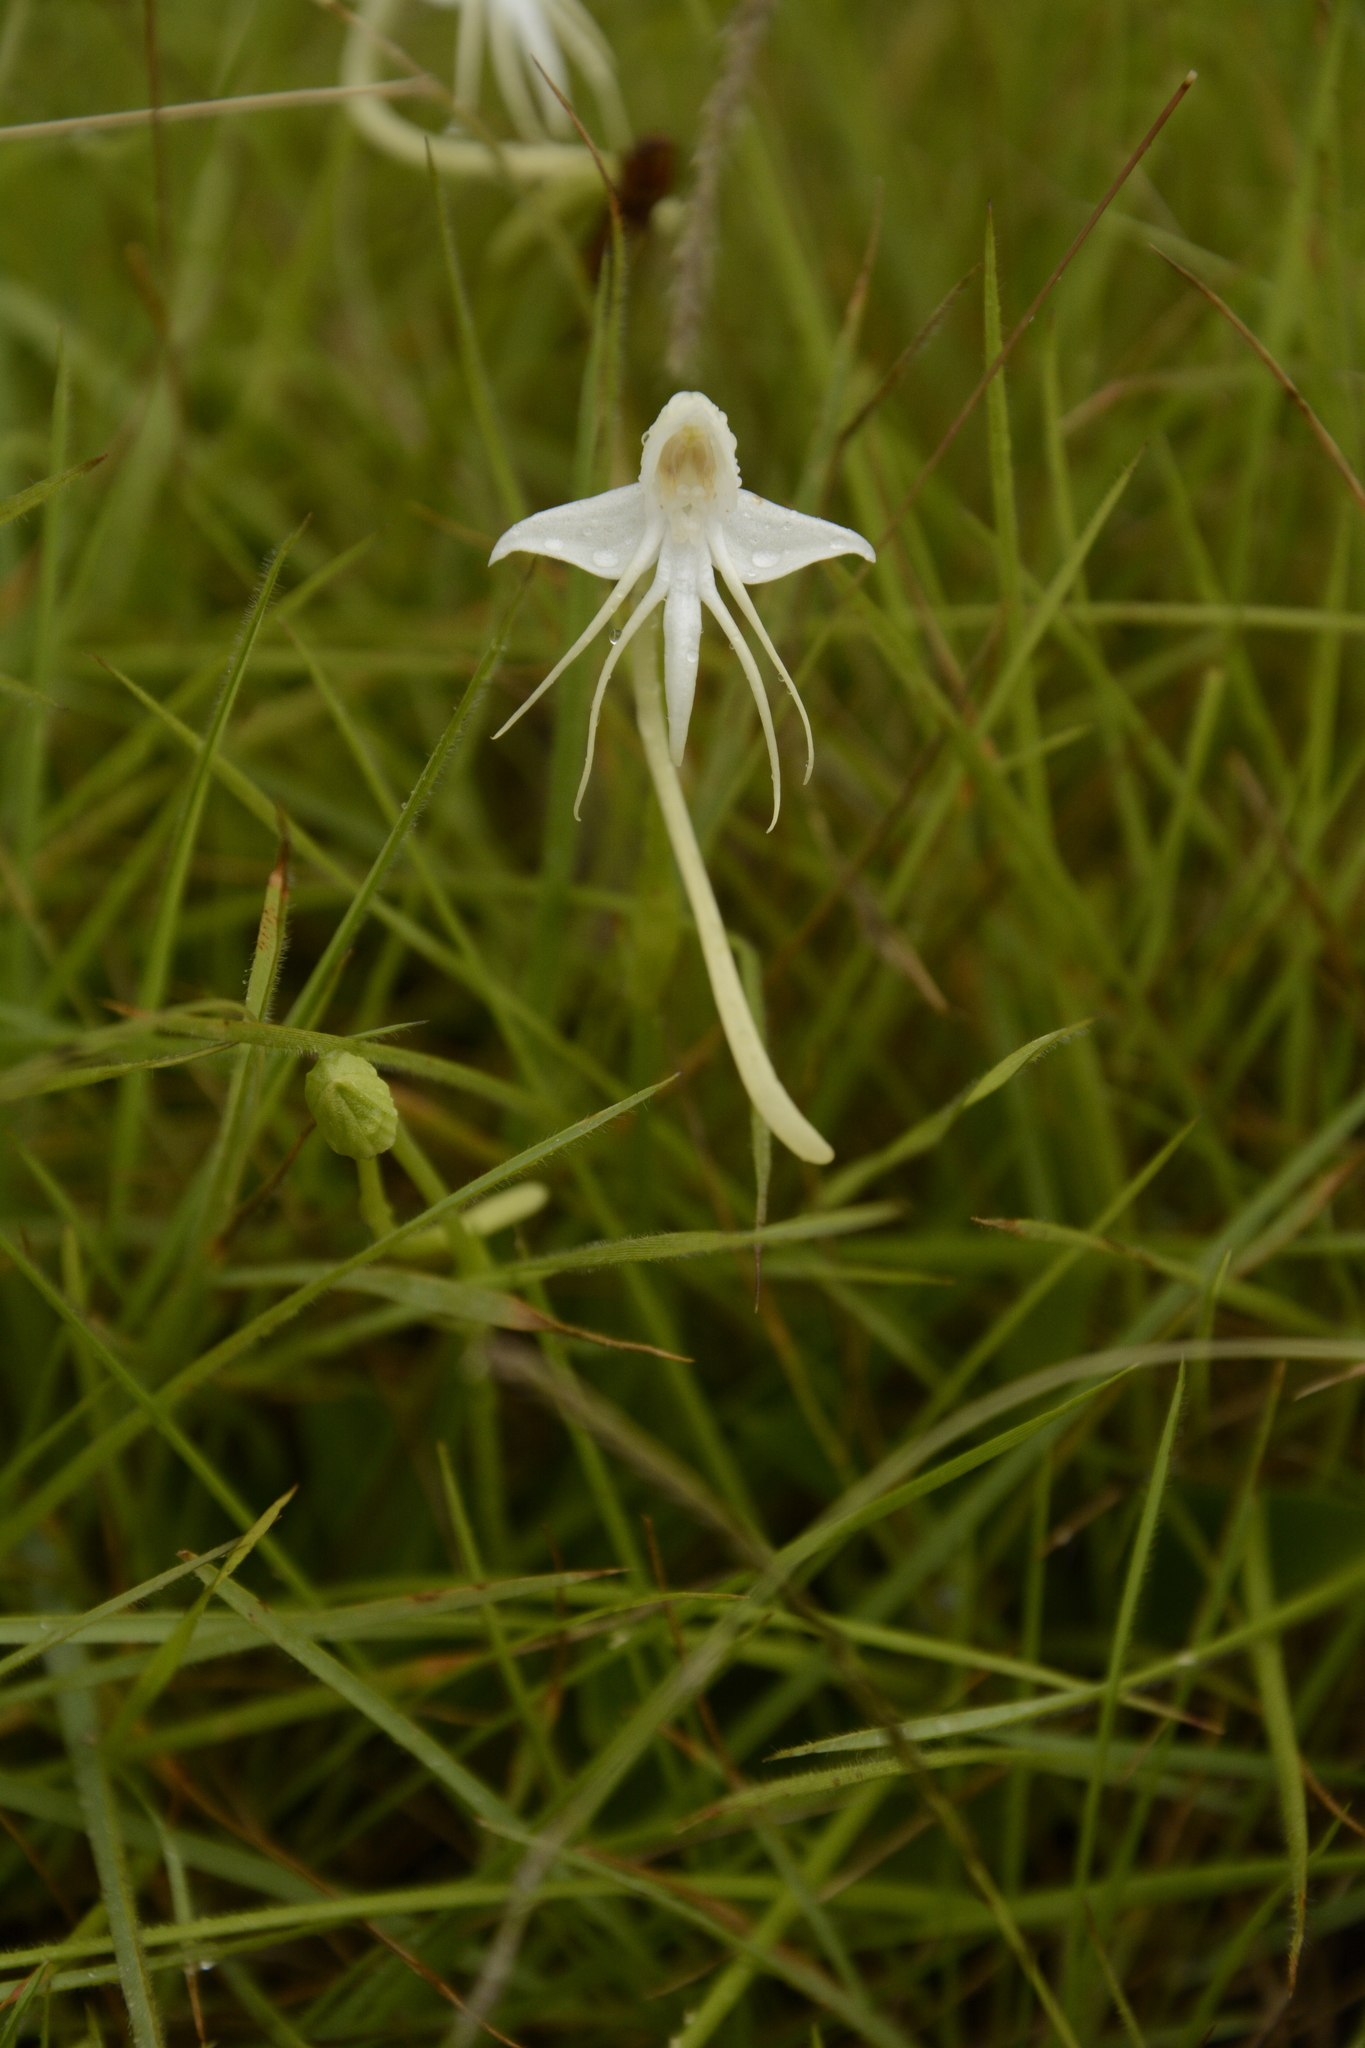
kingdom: Plantae
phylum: Tracheophyta
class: Liliopsida
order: Asparagales
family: Orchidaceae
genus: Habenaria
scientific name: Habenaria rariflora
